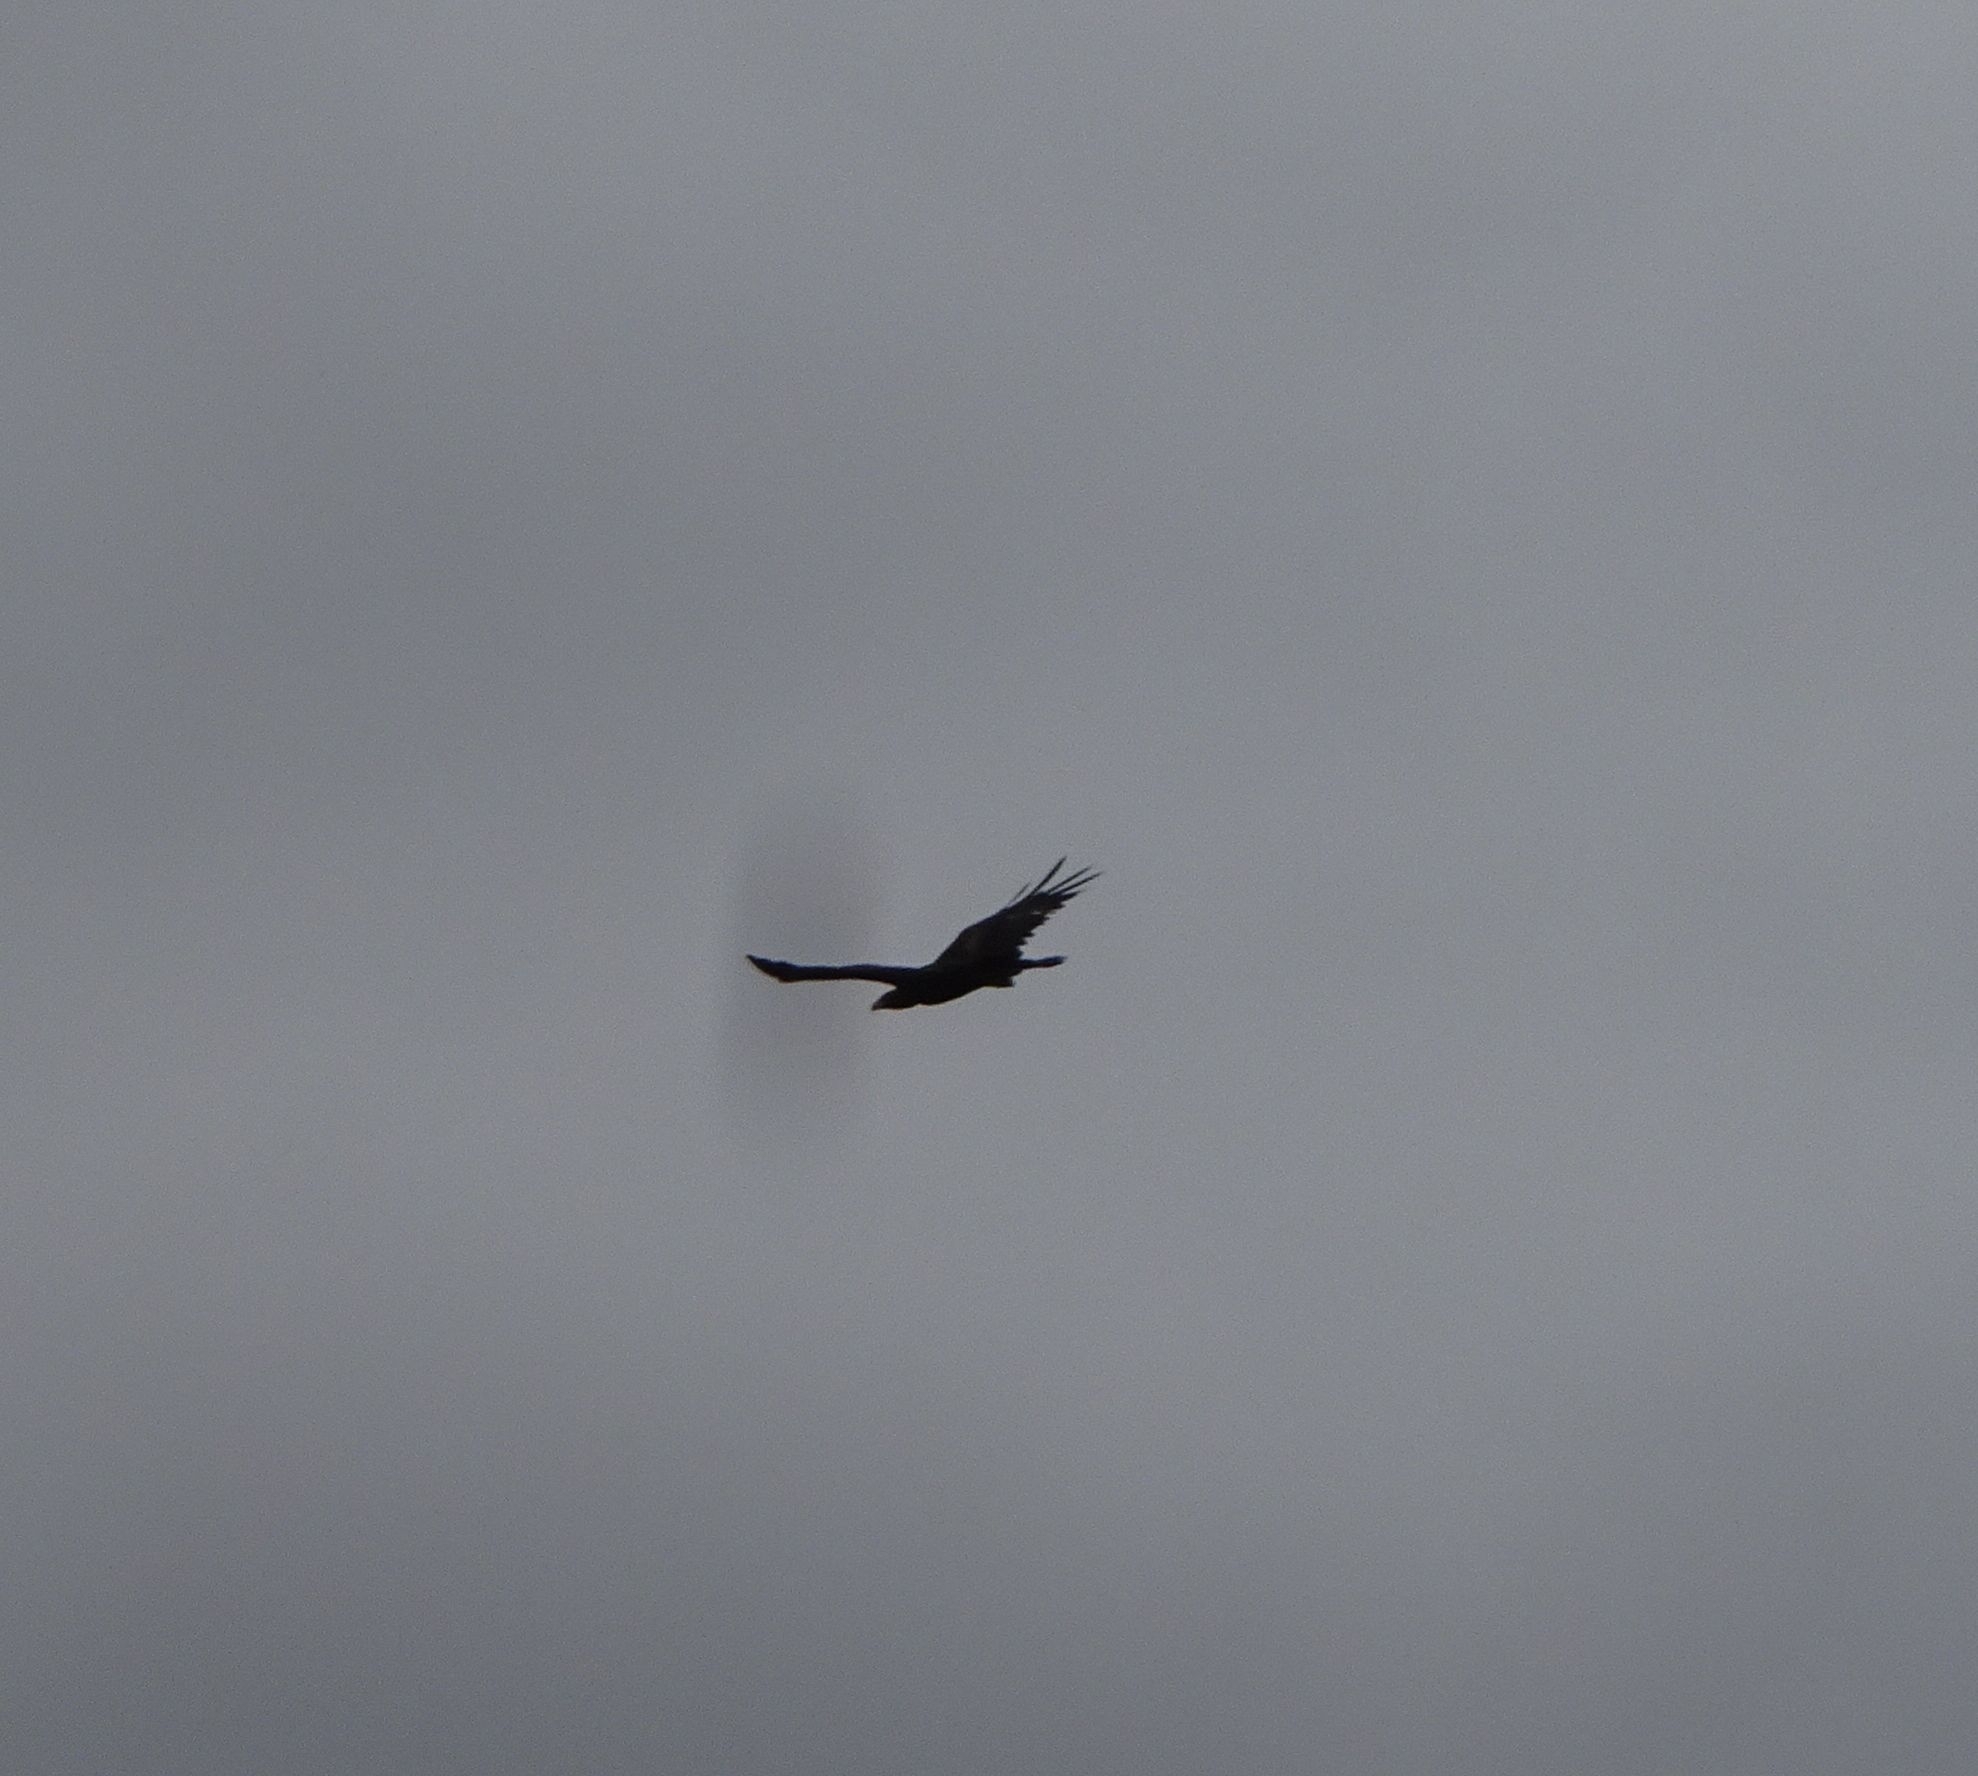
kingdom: Animalia
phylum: Chordata
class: Aves
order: Accipitriformes
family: Accipitridae
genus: Aquila
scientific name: Aquila audax
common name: Wedge-tailed eagle
